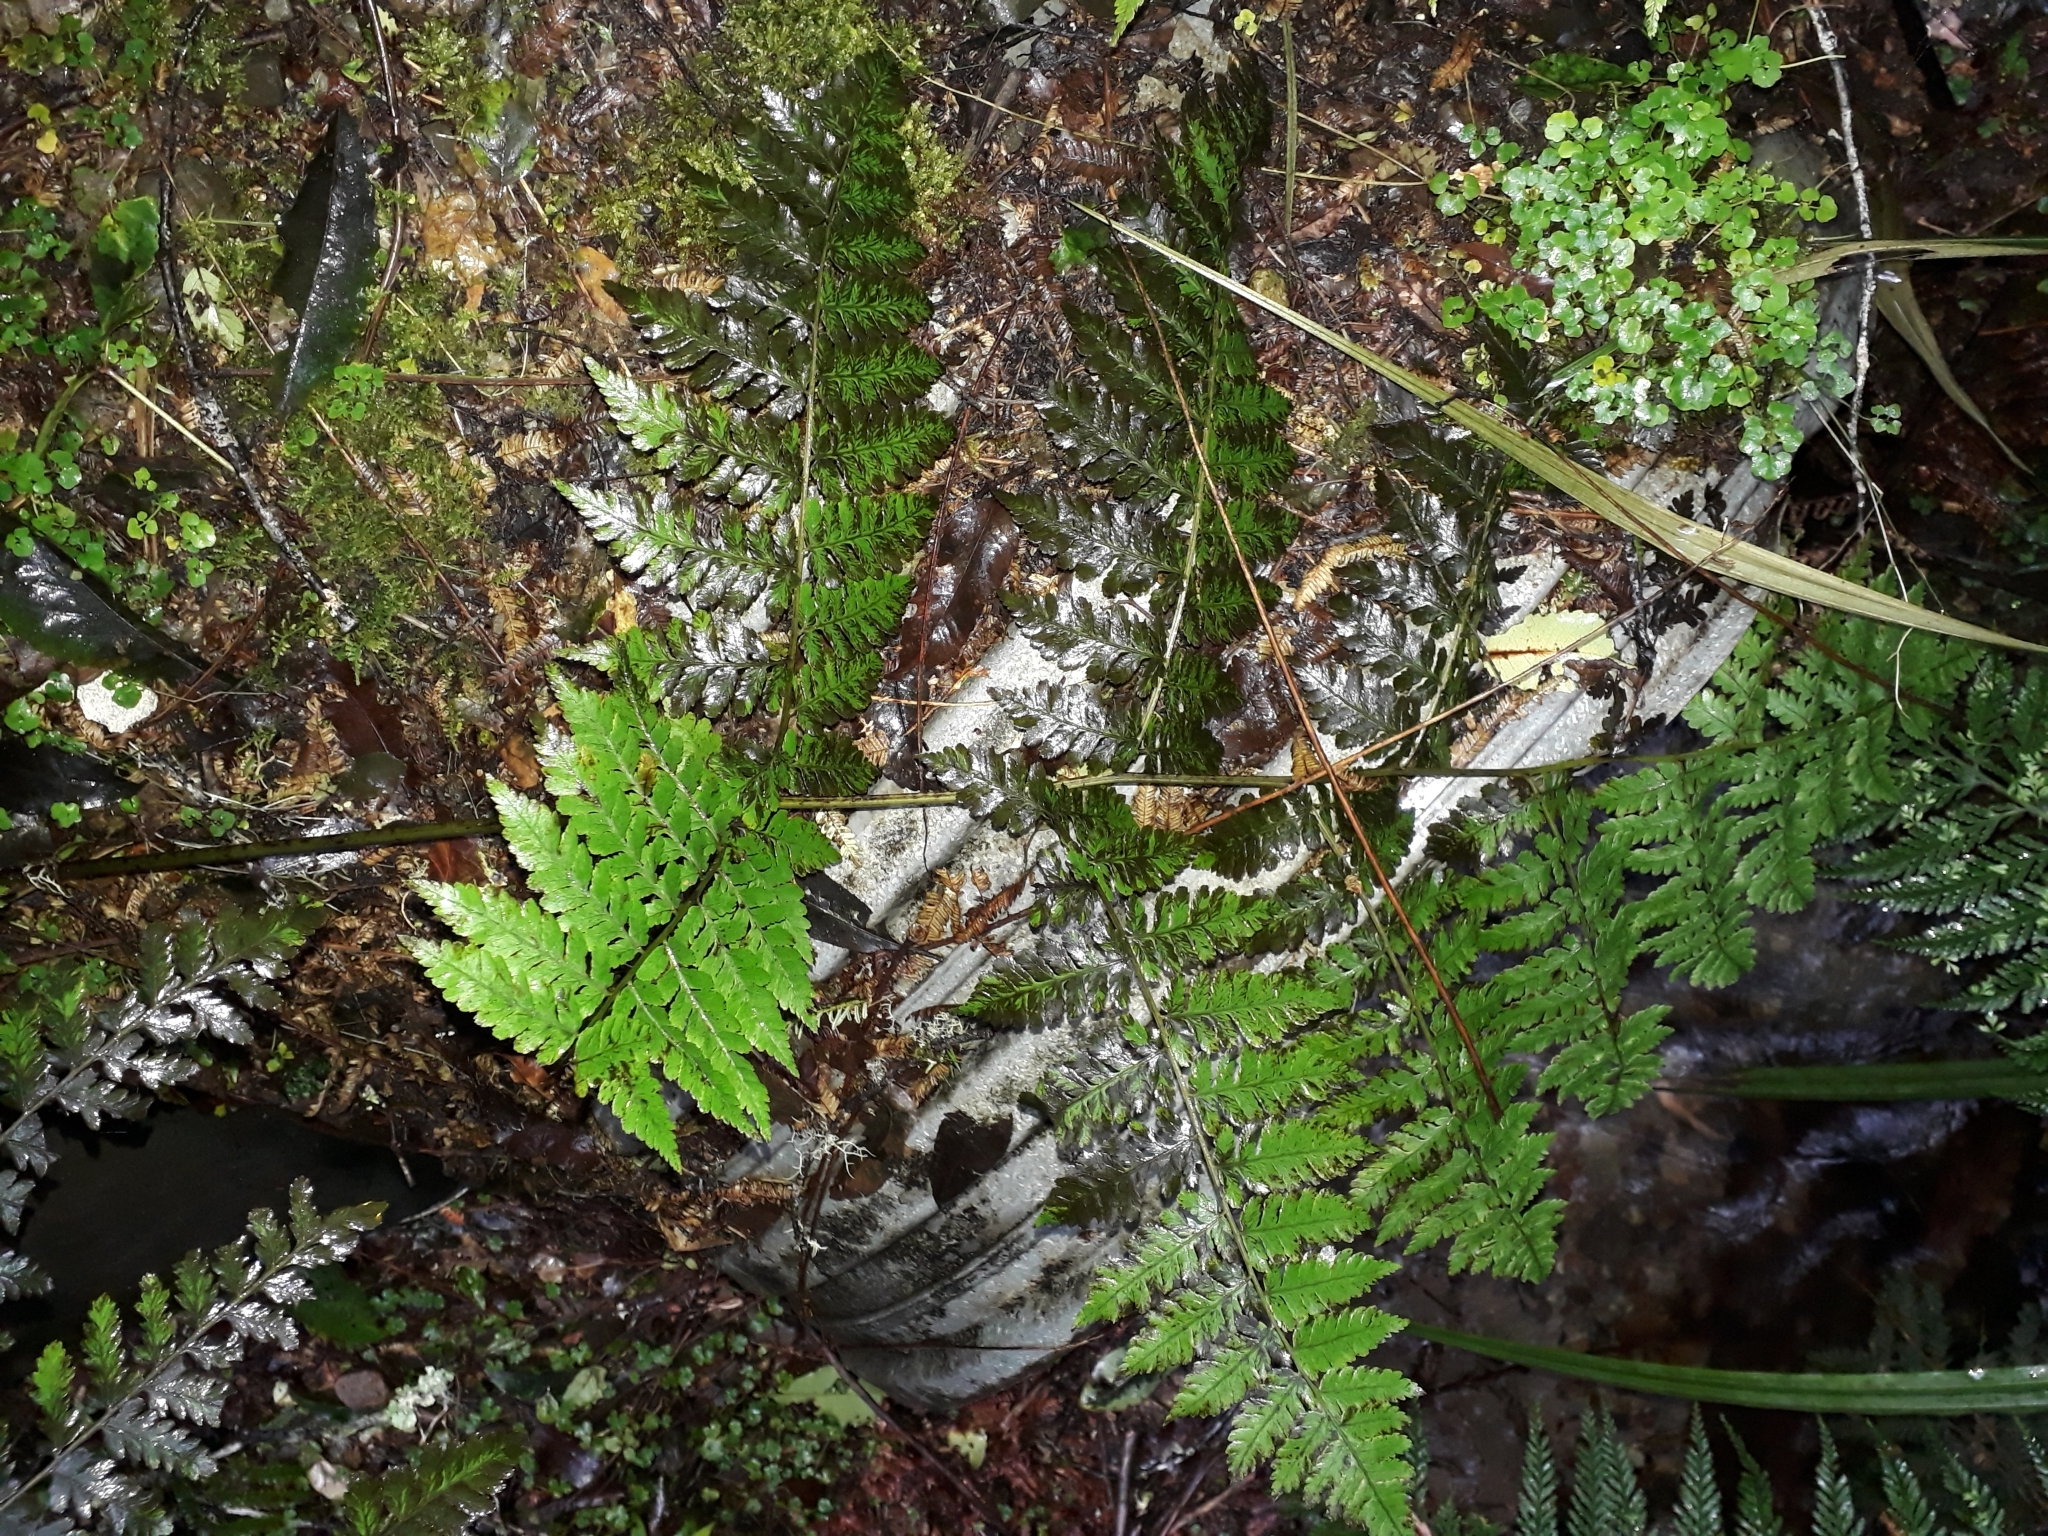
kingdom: Plantae
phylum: Tracheophyta
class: Polypodiopsida
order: Polypodiales
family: Athyriaceae
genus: Diplazium
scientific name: Diplazium australe
